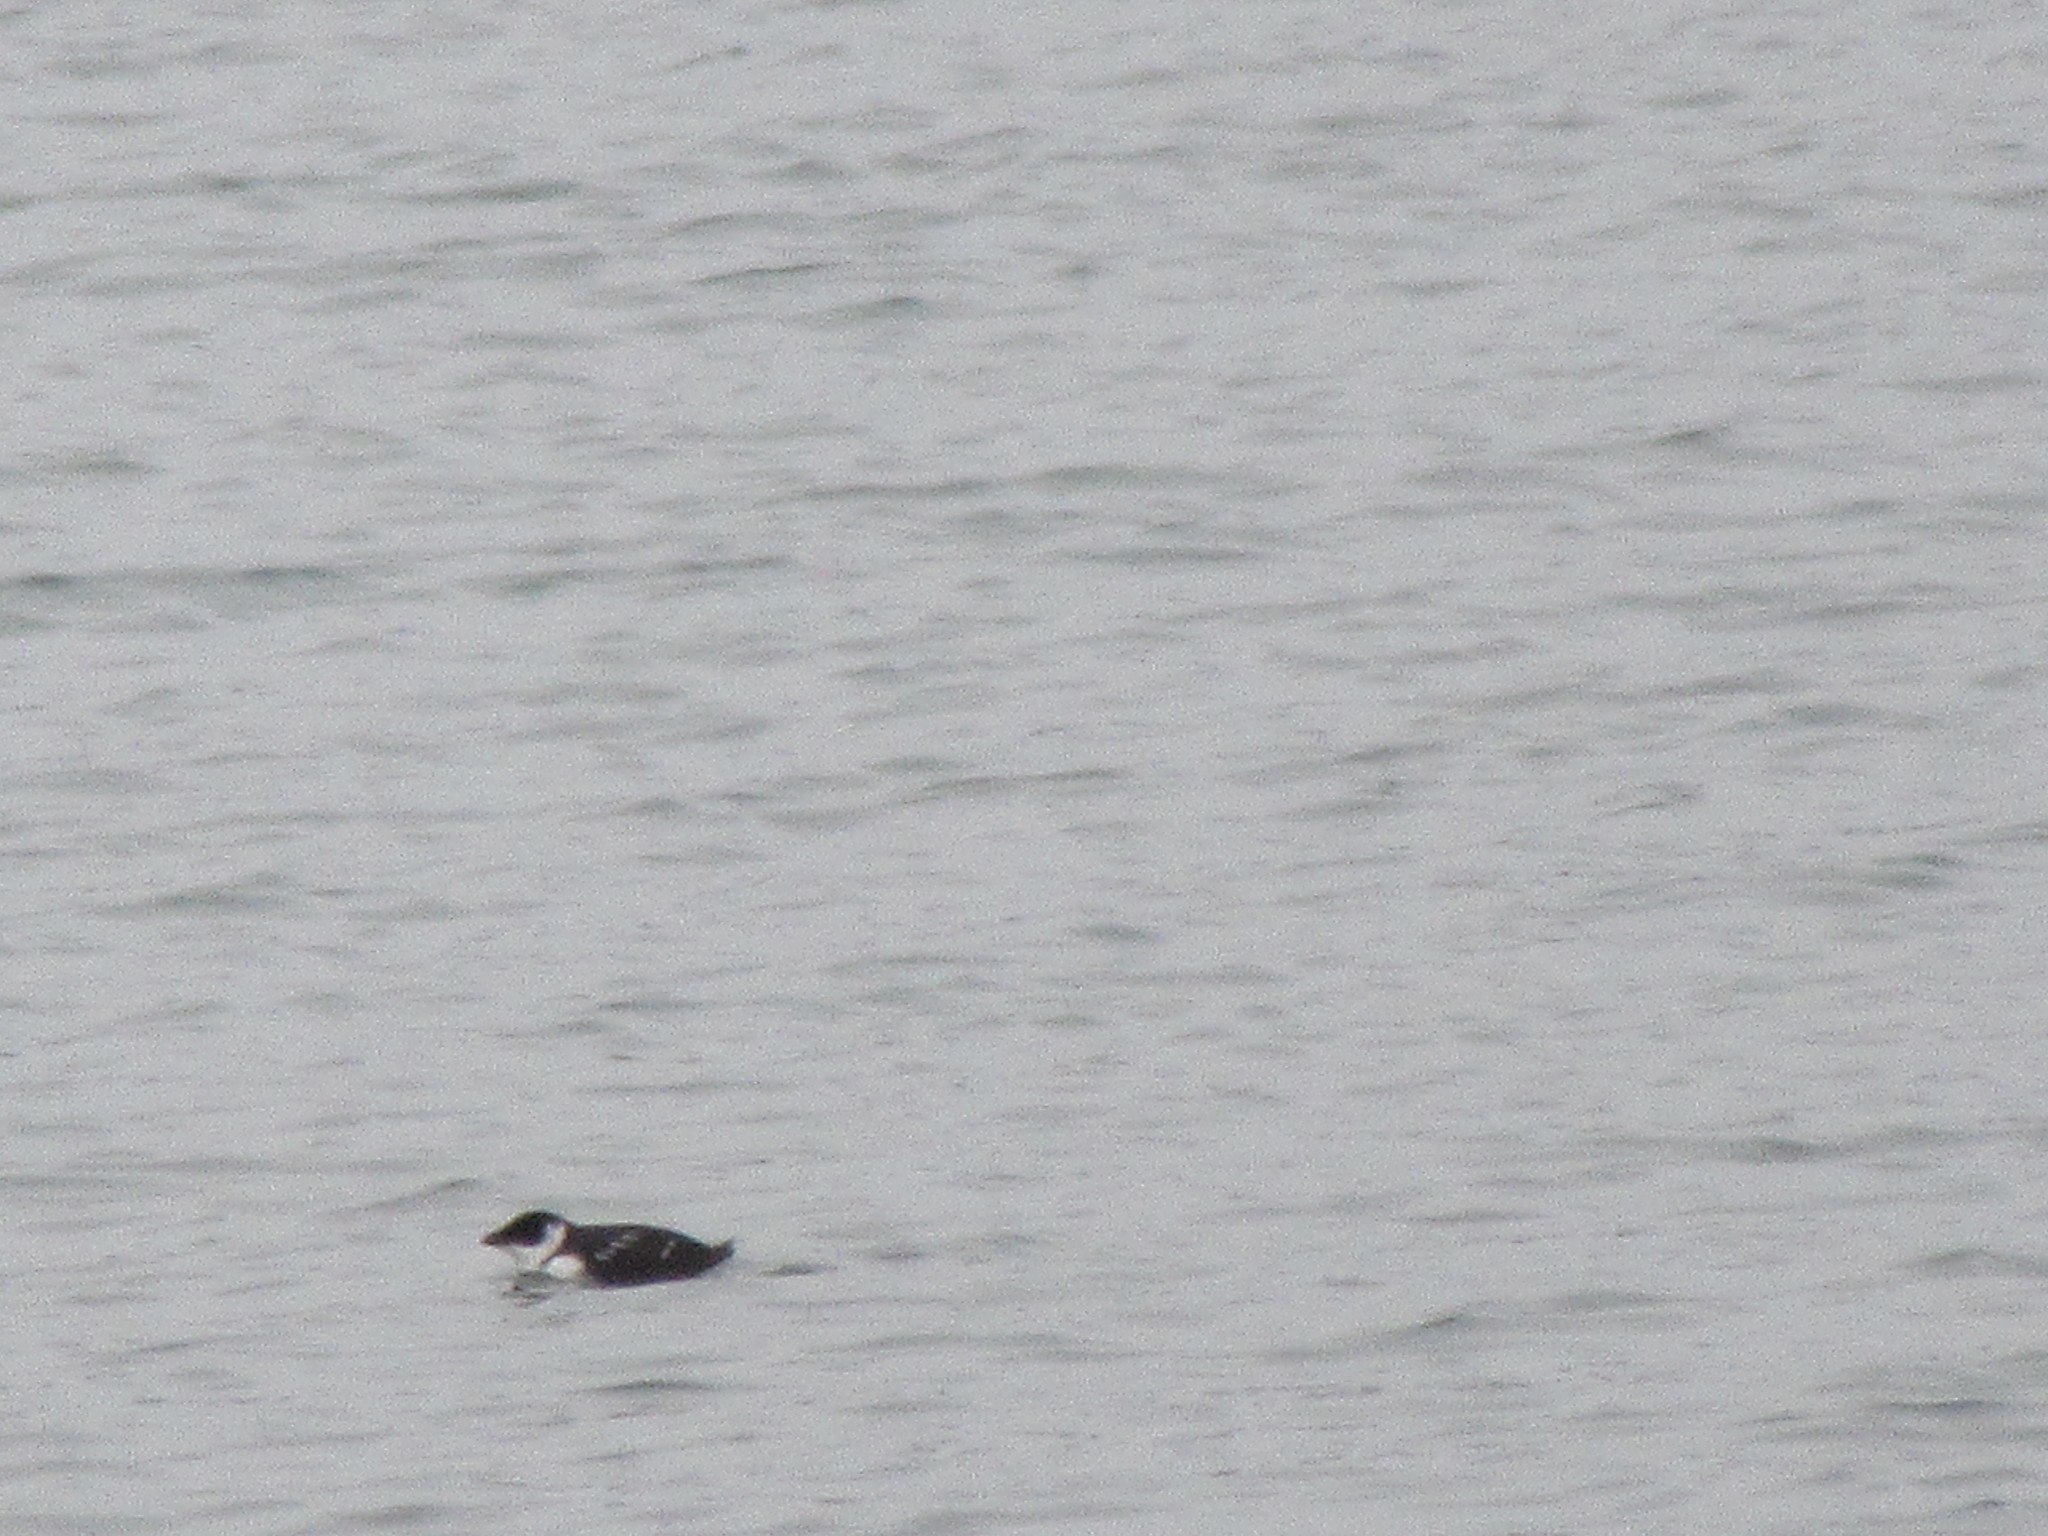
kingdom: Animalia
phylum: Chordata
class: Aves
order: Charadriiformes
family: Alcidae
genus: Alle
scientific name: Alle alle
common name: Little auk
